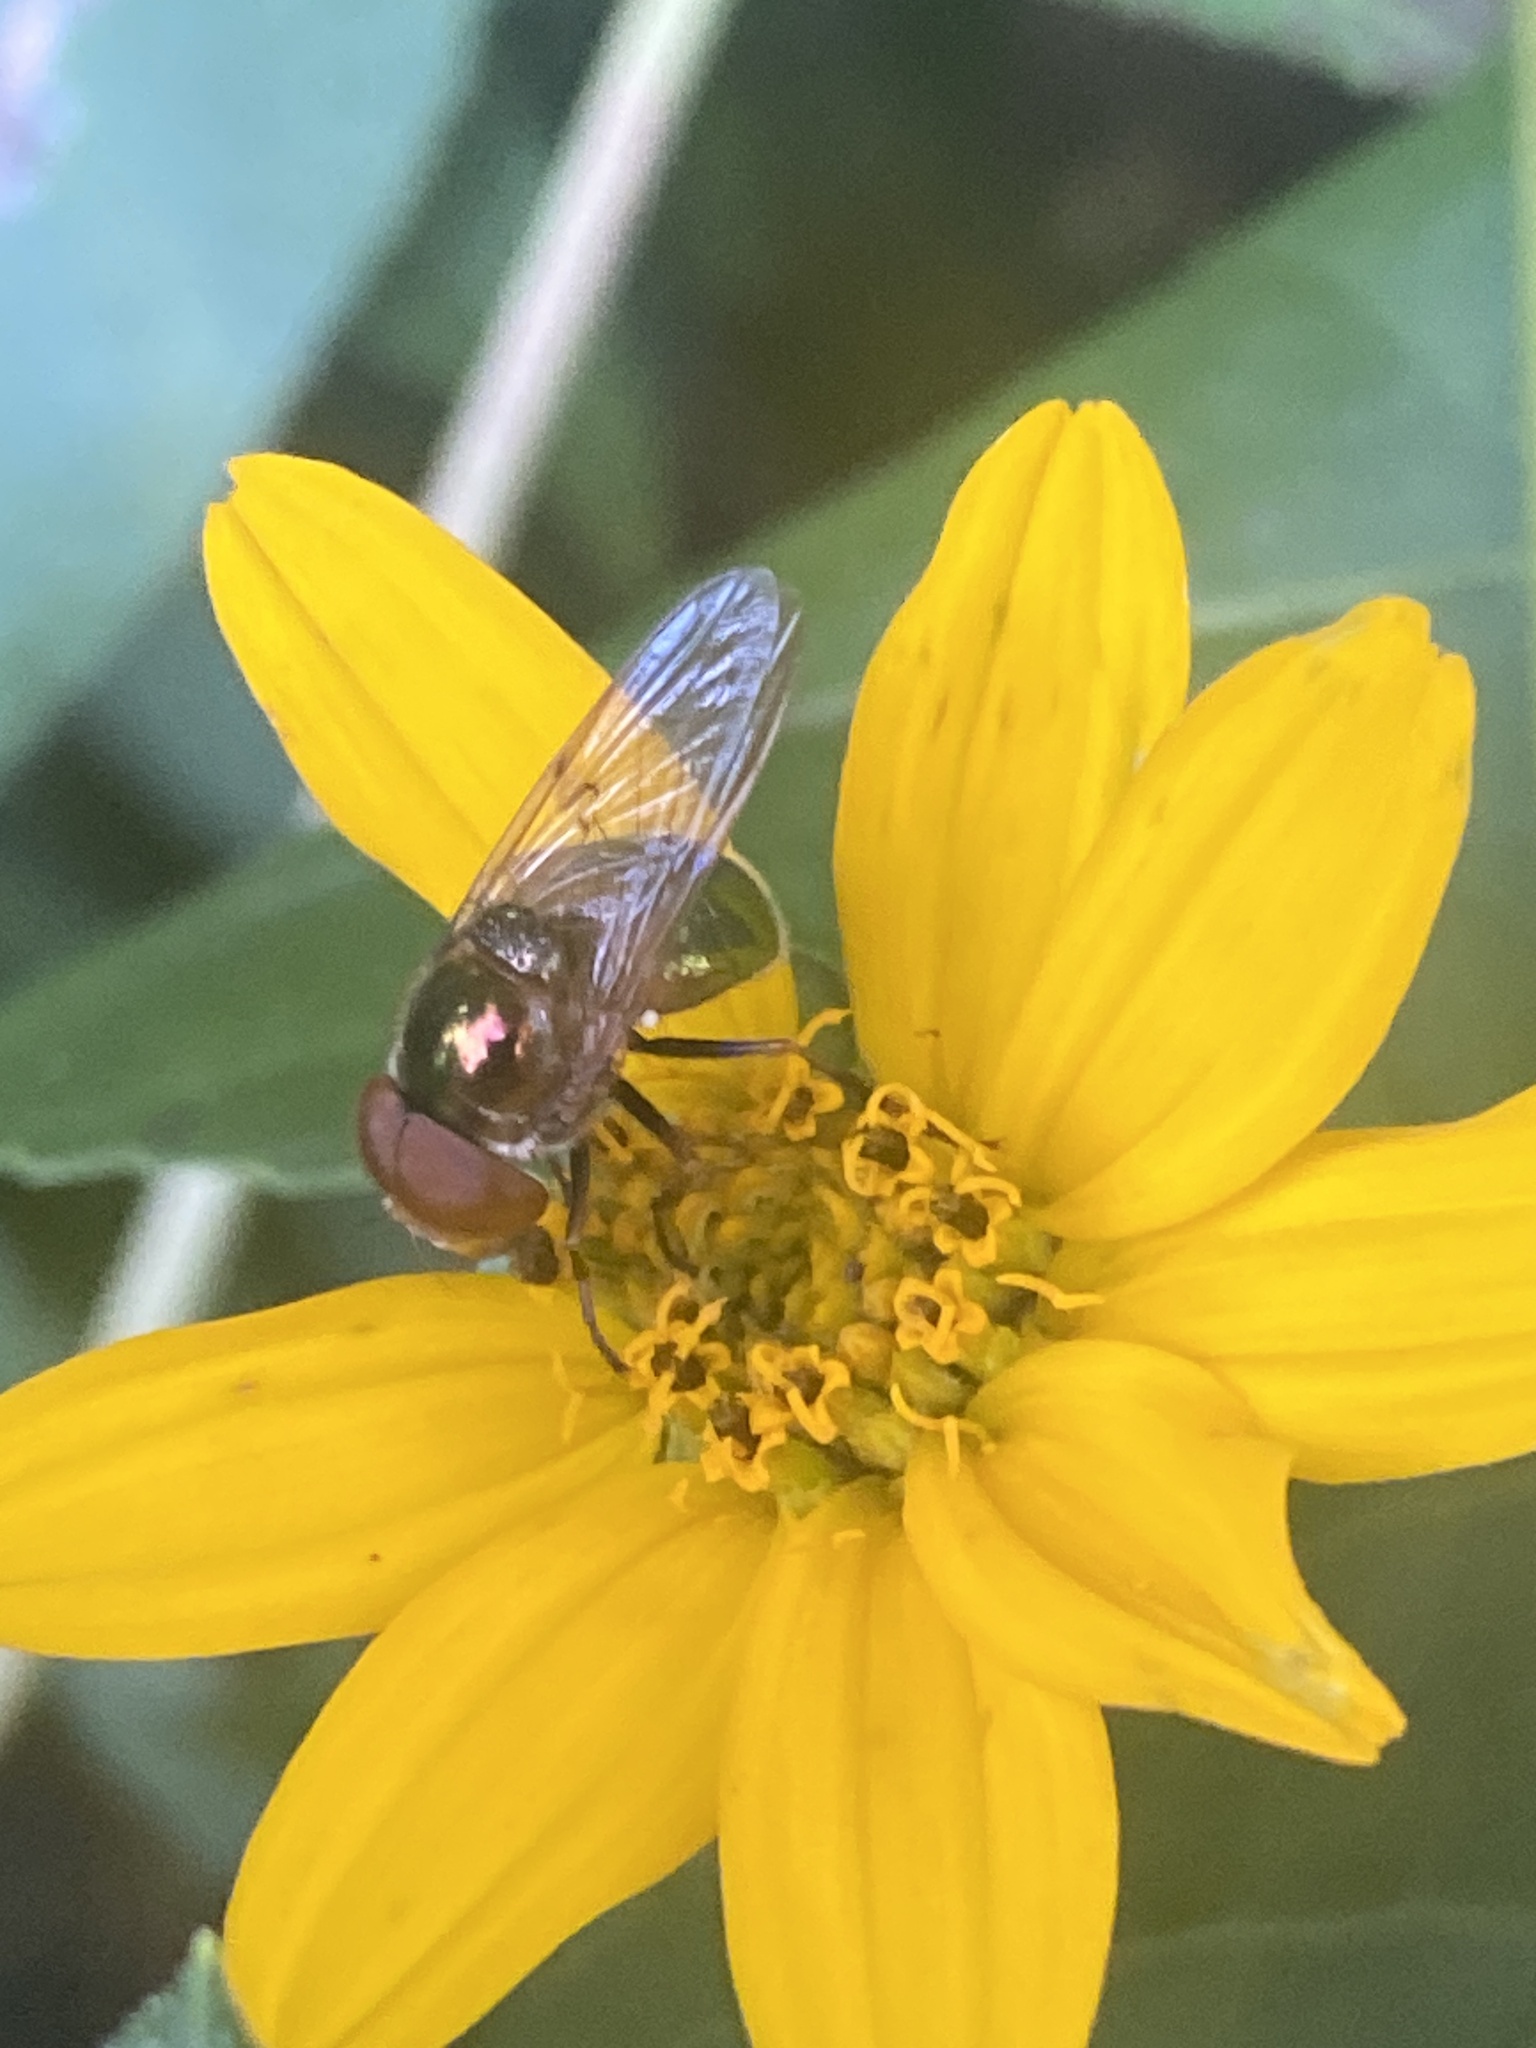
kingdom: Animalia
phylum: Arthropoda
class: Insecta
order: Diptera
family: Syrphidae
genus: Copestylum
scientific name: Copestylum vesicularium
